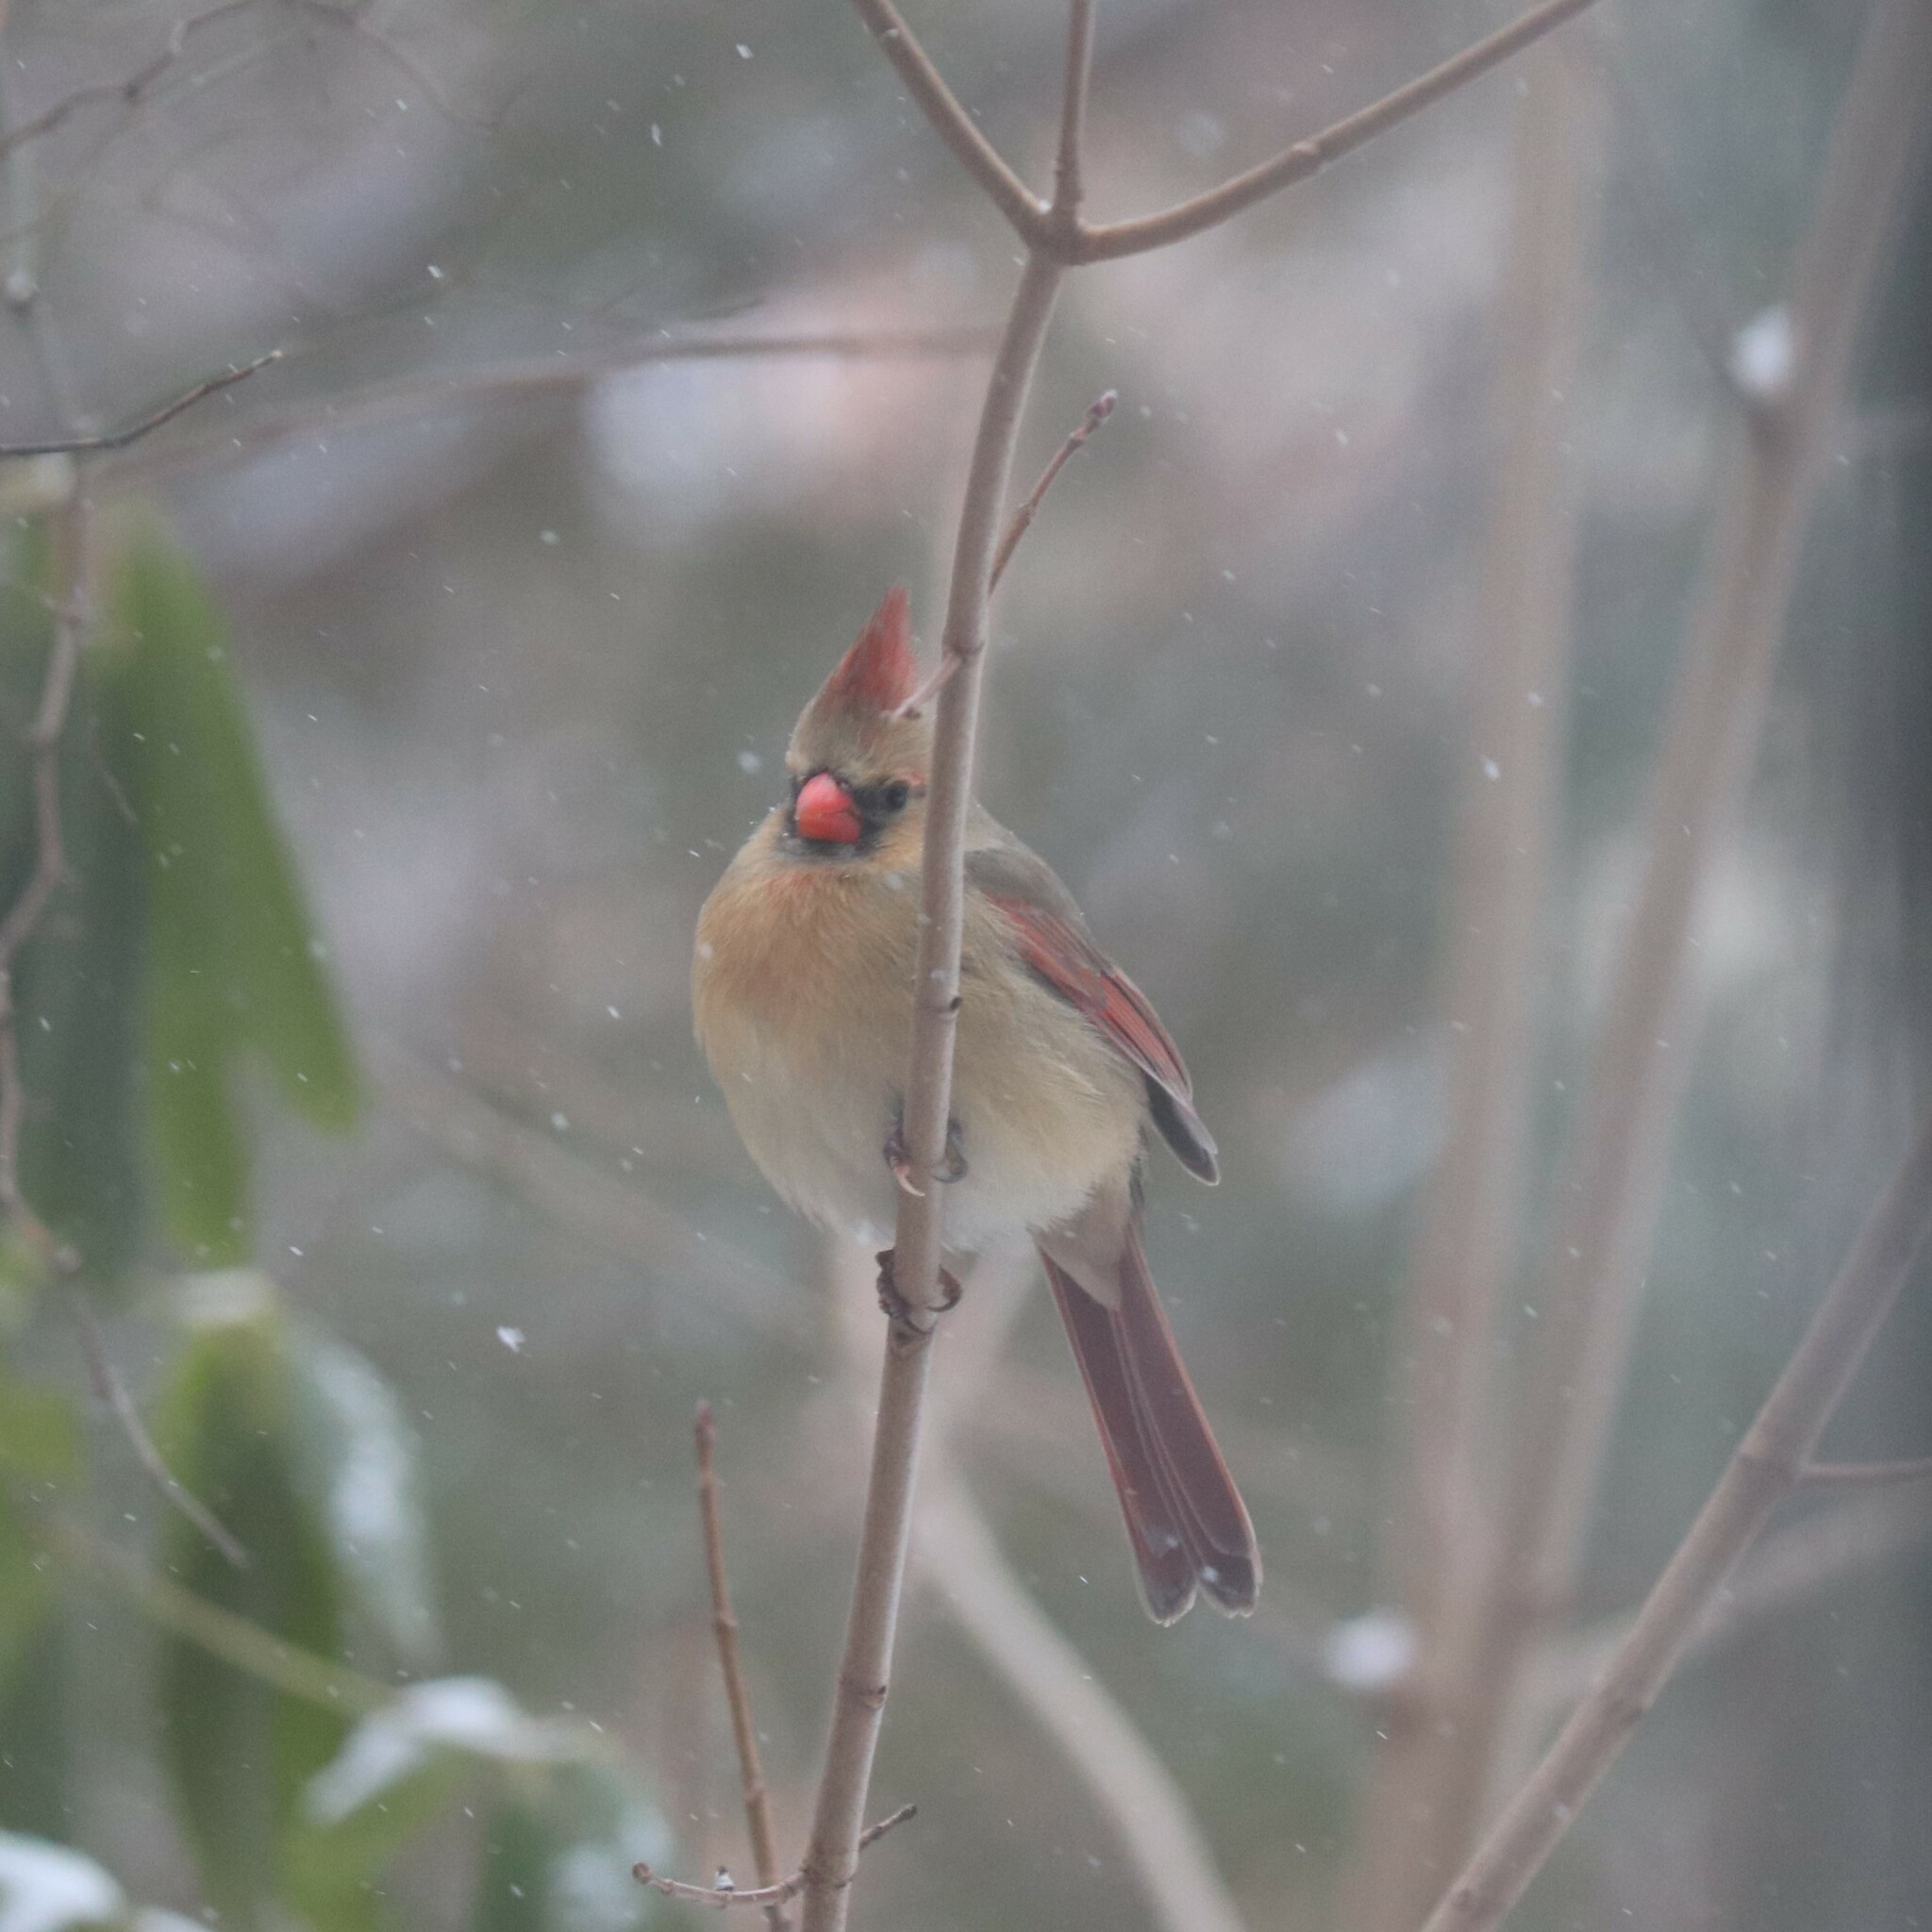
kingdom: Animalia
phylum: Chordata
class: Aves
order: Passeriformes
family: Cardinalidae
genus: Cardinalis
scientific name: Cardinalis cardinalis
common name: Northern cardinal
